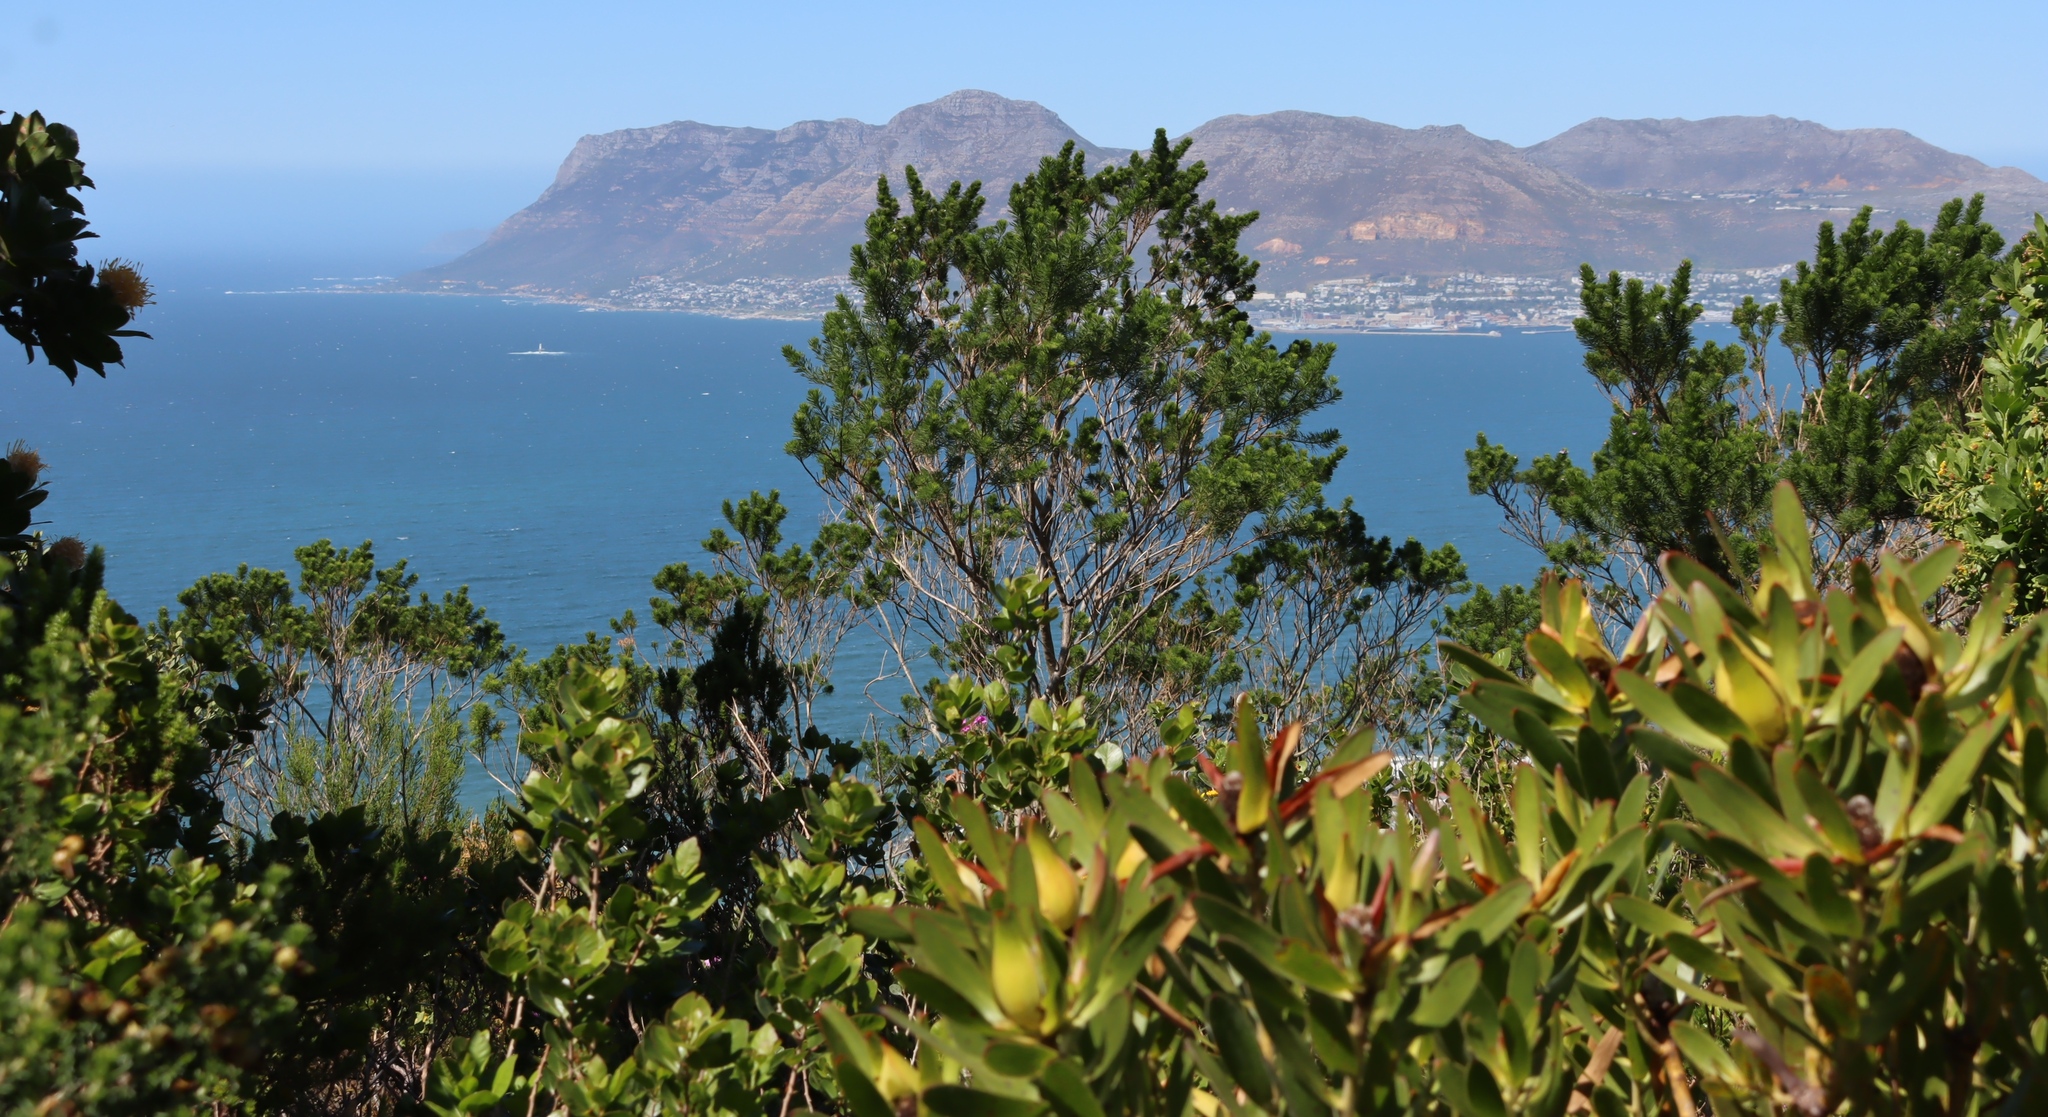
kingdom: Plantae
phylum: Tracheophyta
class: Magnoliopsida
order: Fabales
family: Fabaceae
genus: Psoralea
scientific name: Psoralea pinnata
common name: African scurfpea
